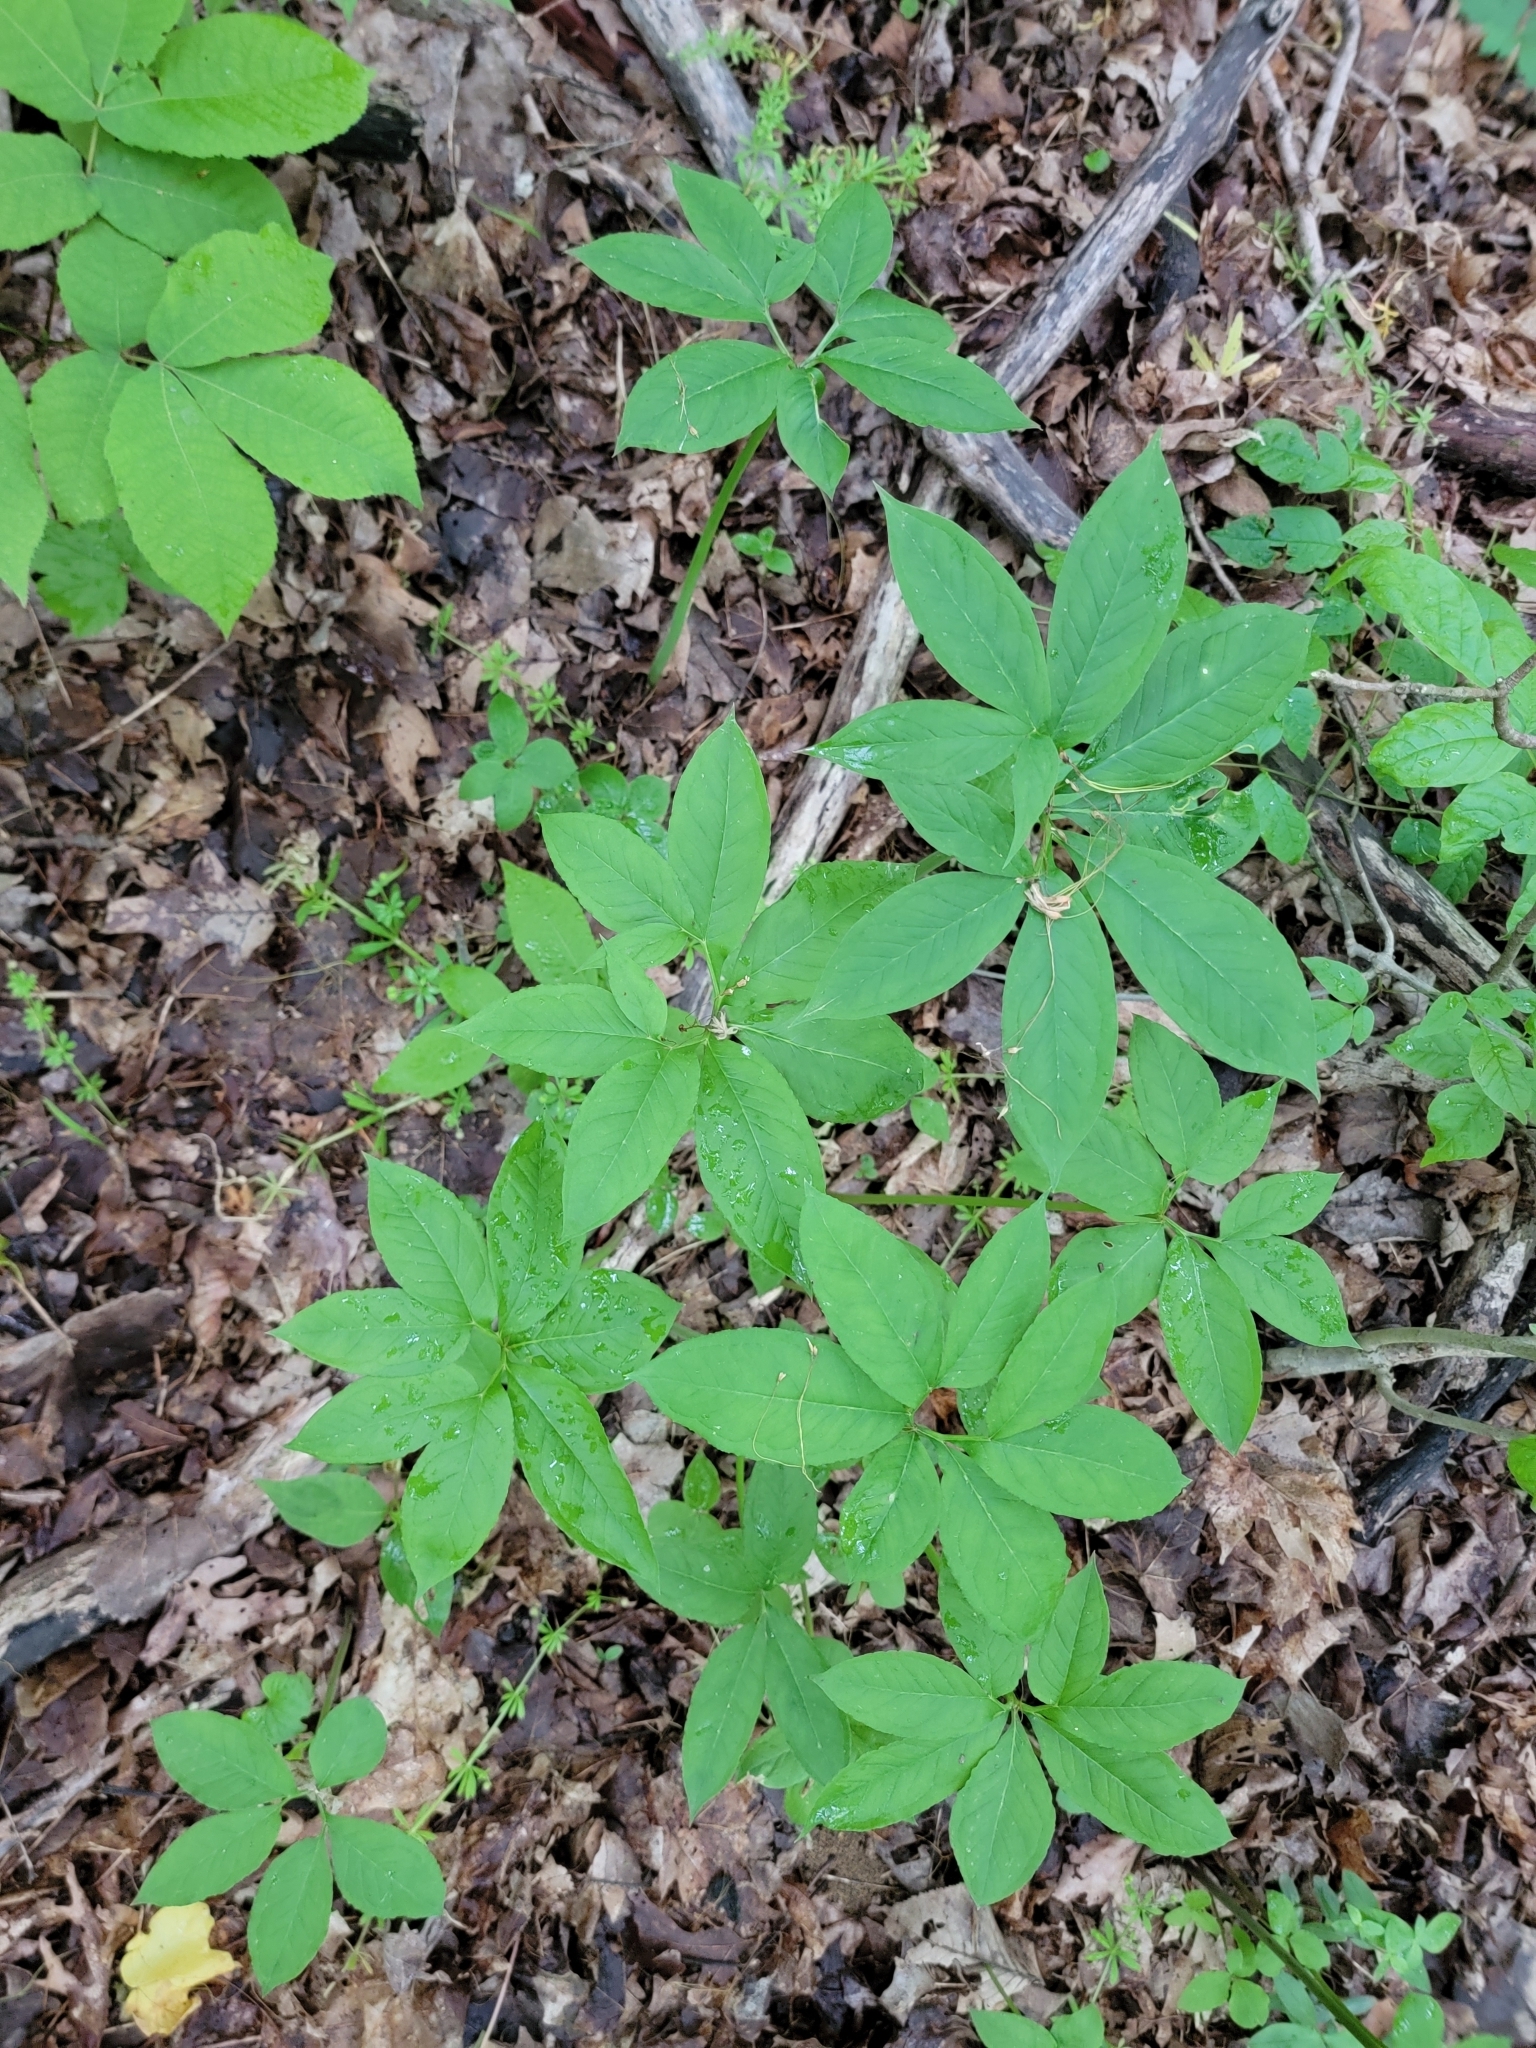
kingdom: Plantae
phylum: Tracheophyta
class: Liliopsida
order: Alismatales
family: Araceae
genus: Arisaema
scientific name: Arisaema dracontium
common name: Dragon-arum
